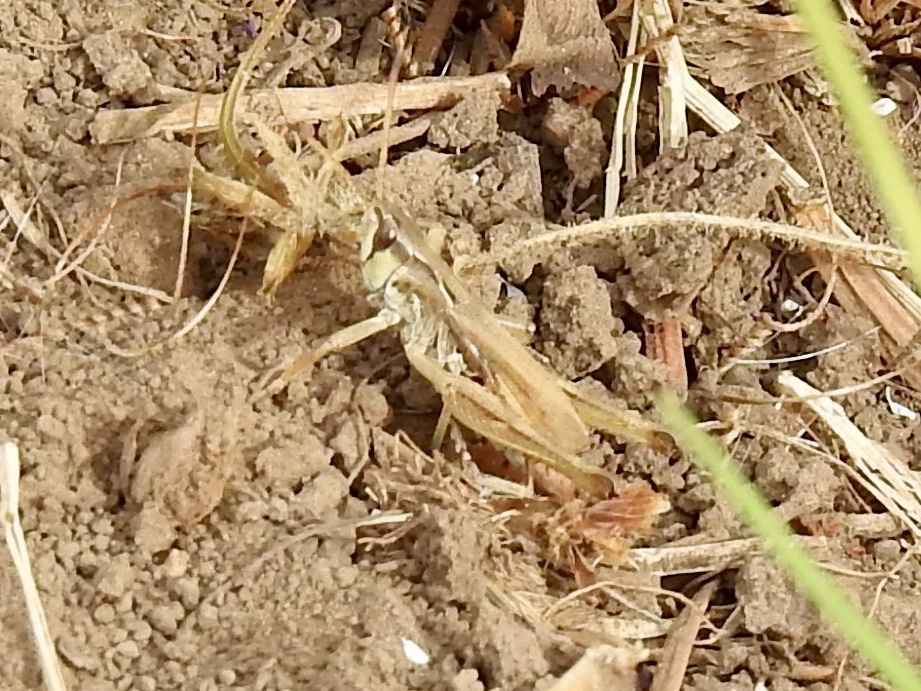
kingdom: Animalia
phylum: Arthropoda
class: Insecta
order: Orthoptera
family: Acrididae
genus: Aeropedellus
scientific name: Aeropedellus clavatus
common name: Clubhorned grasshopper
